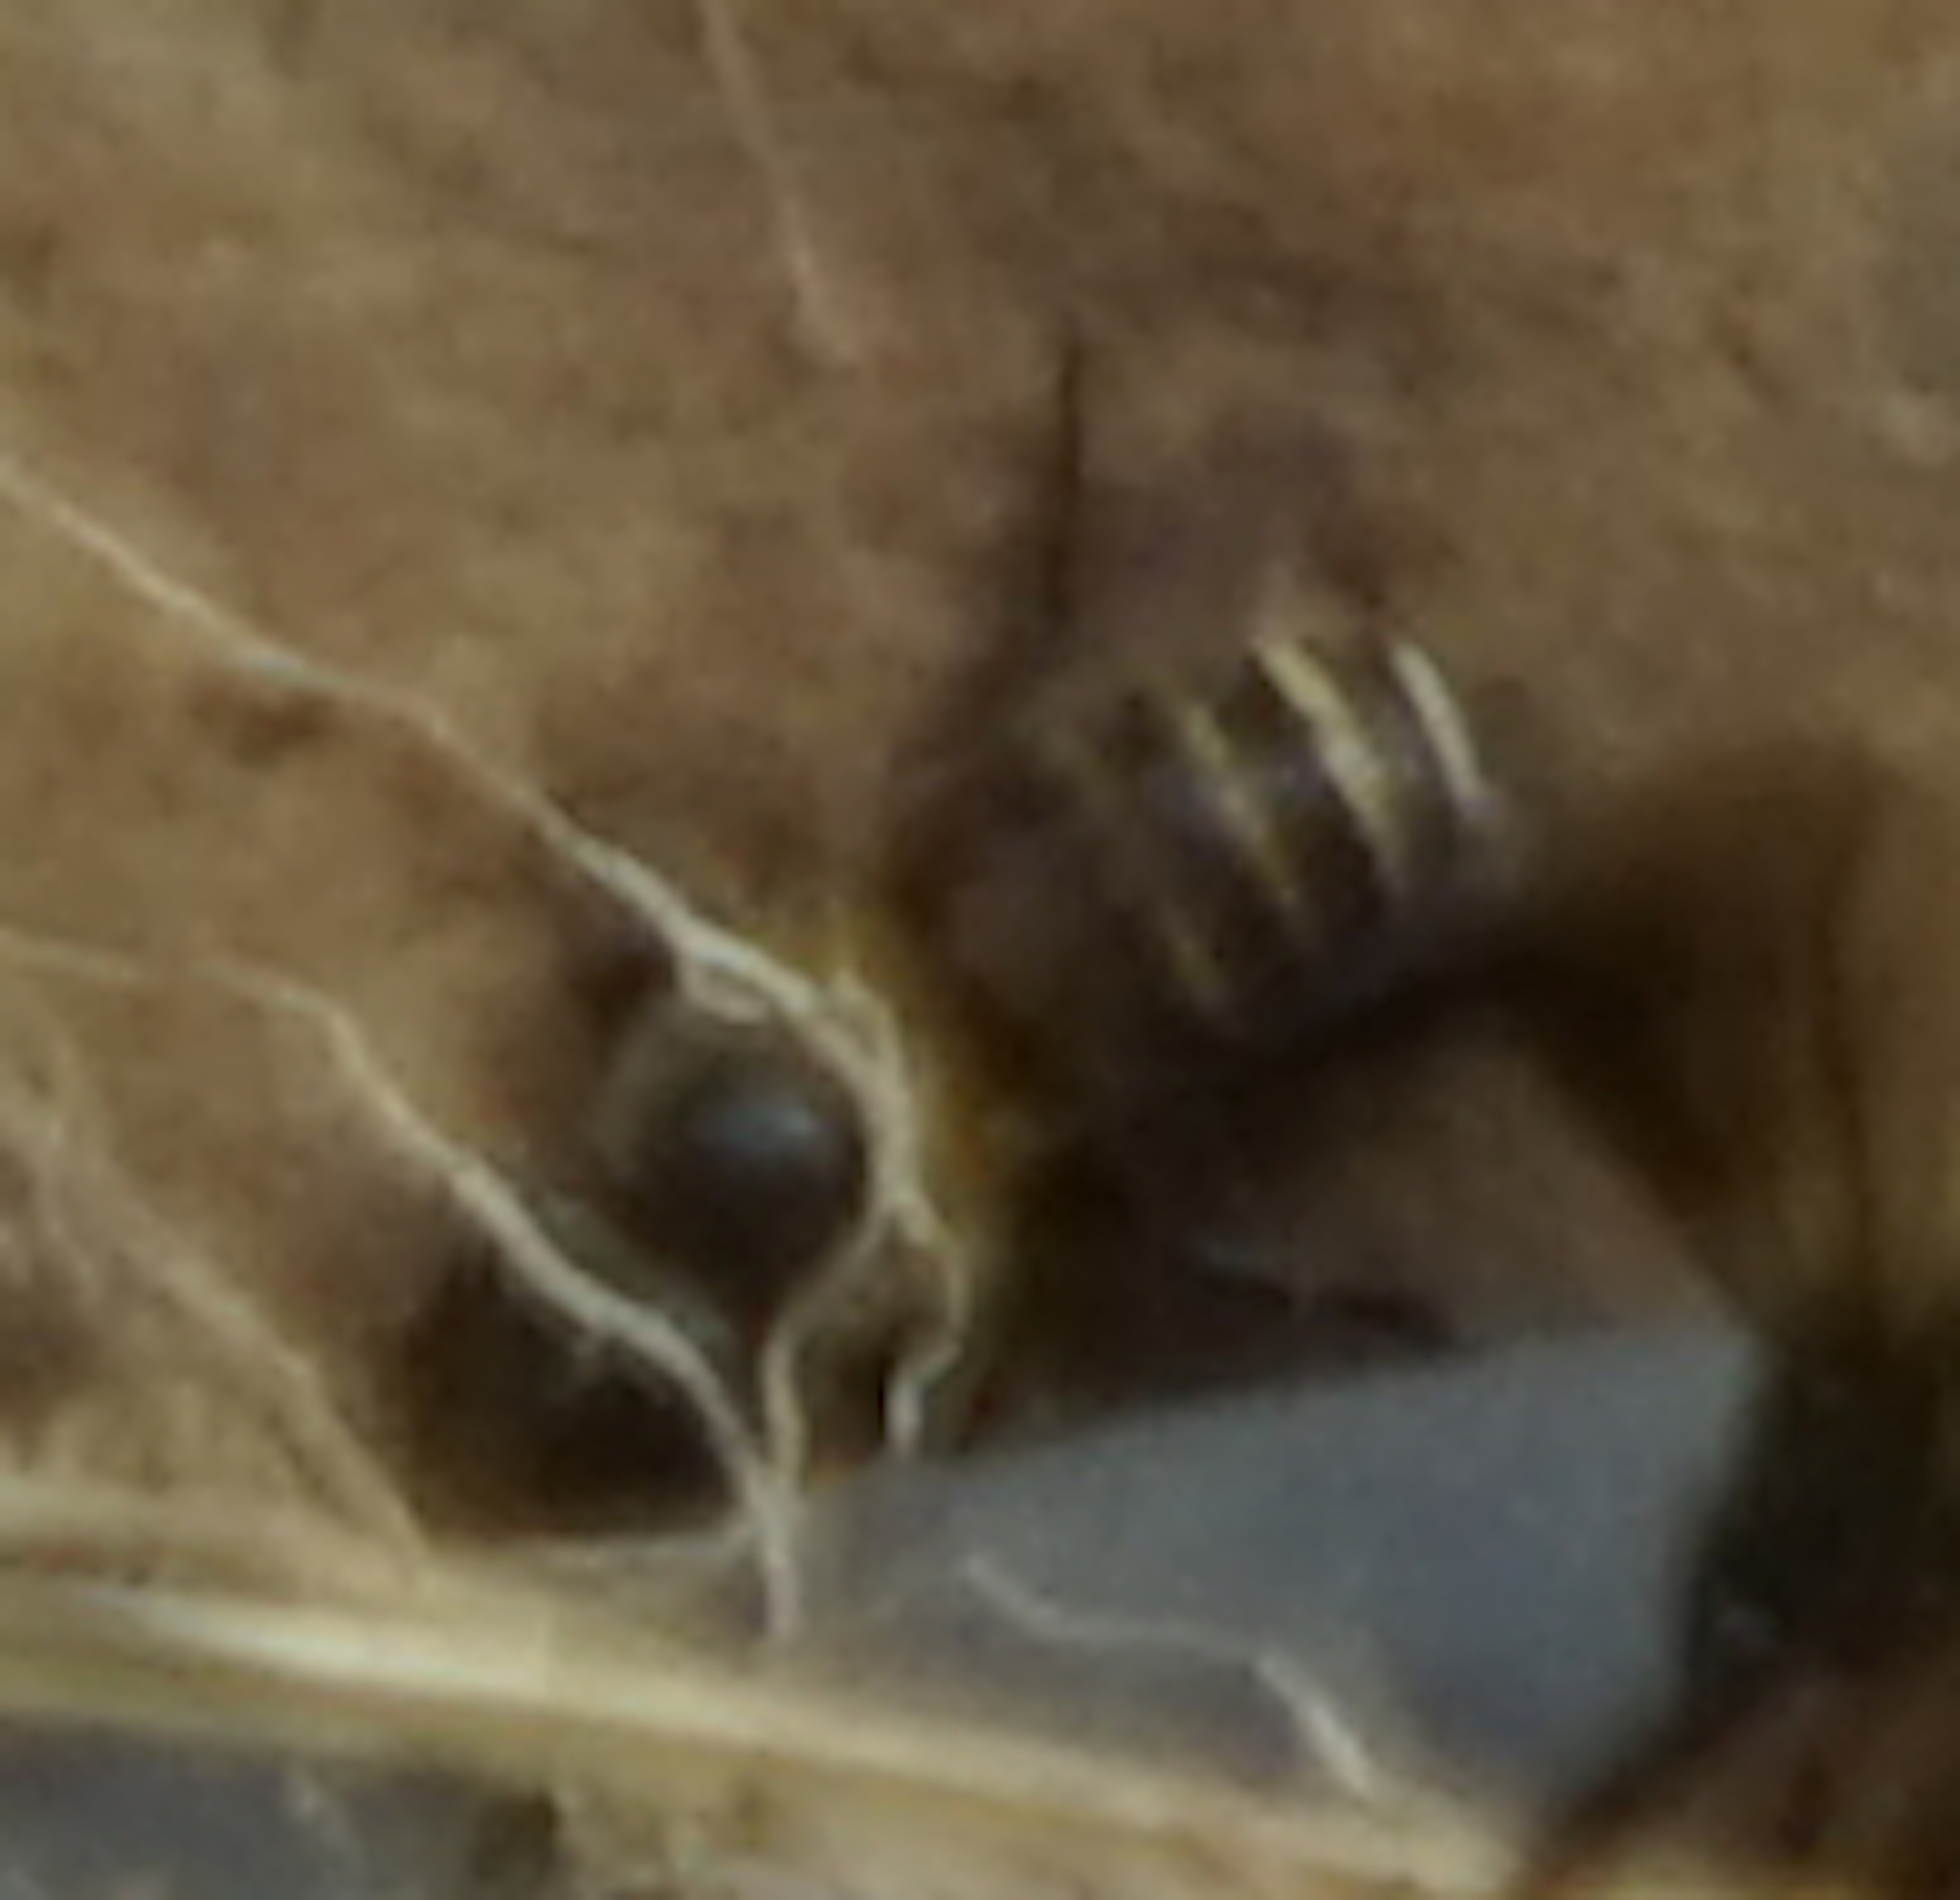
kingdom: Animalia
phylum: Arthropoda
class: Insecta
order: Hymenoptera
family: Apidae
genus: Apis
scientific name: Apis
